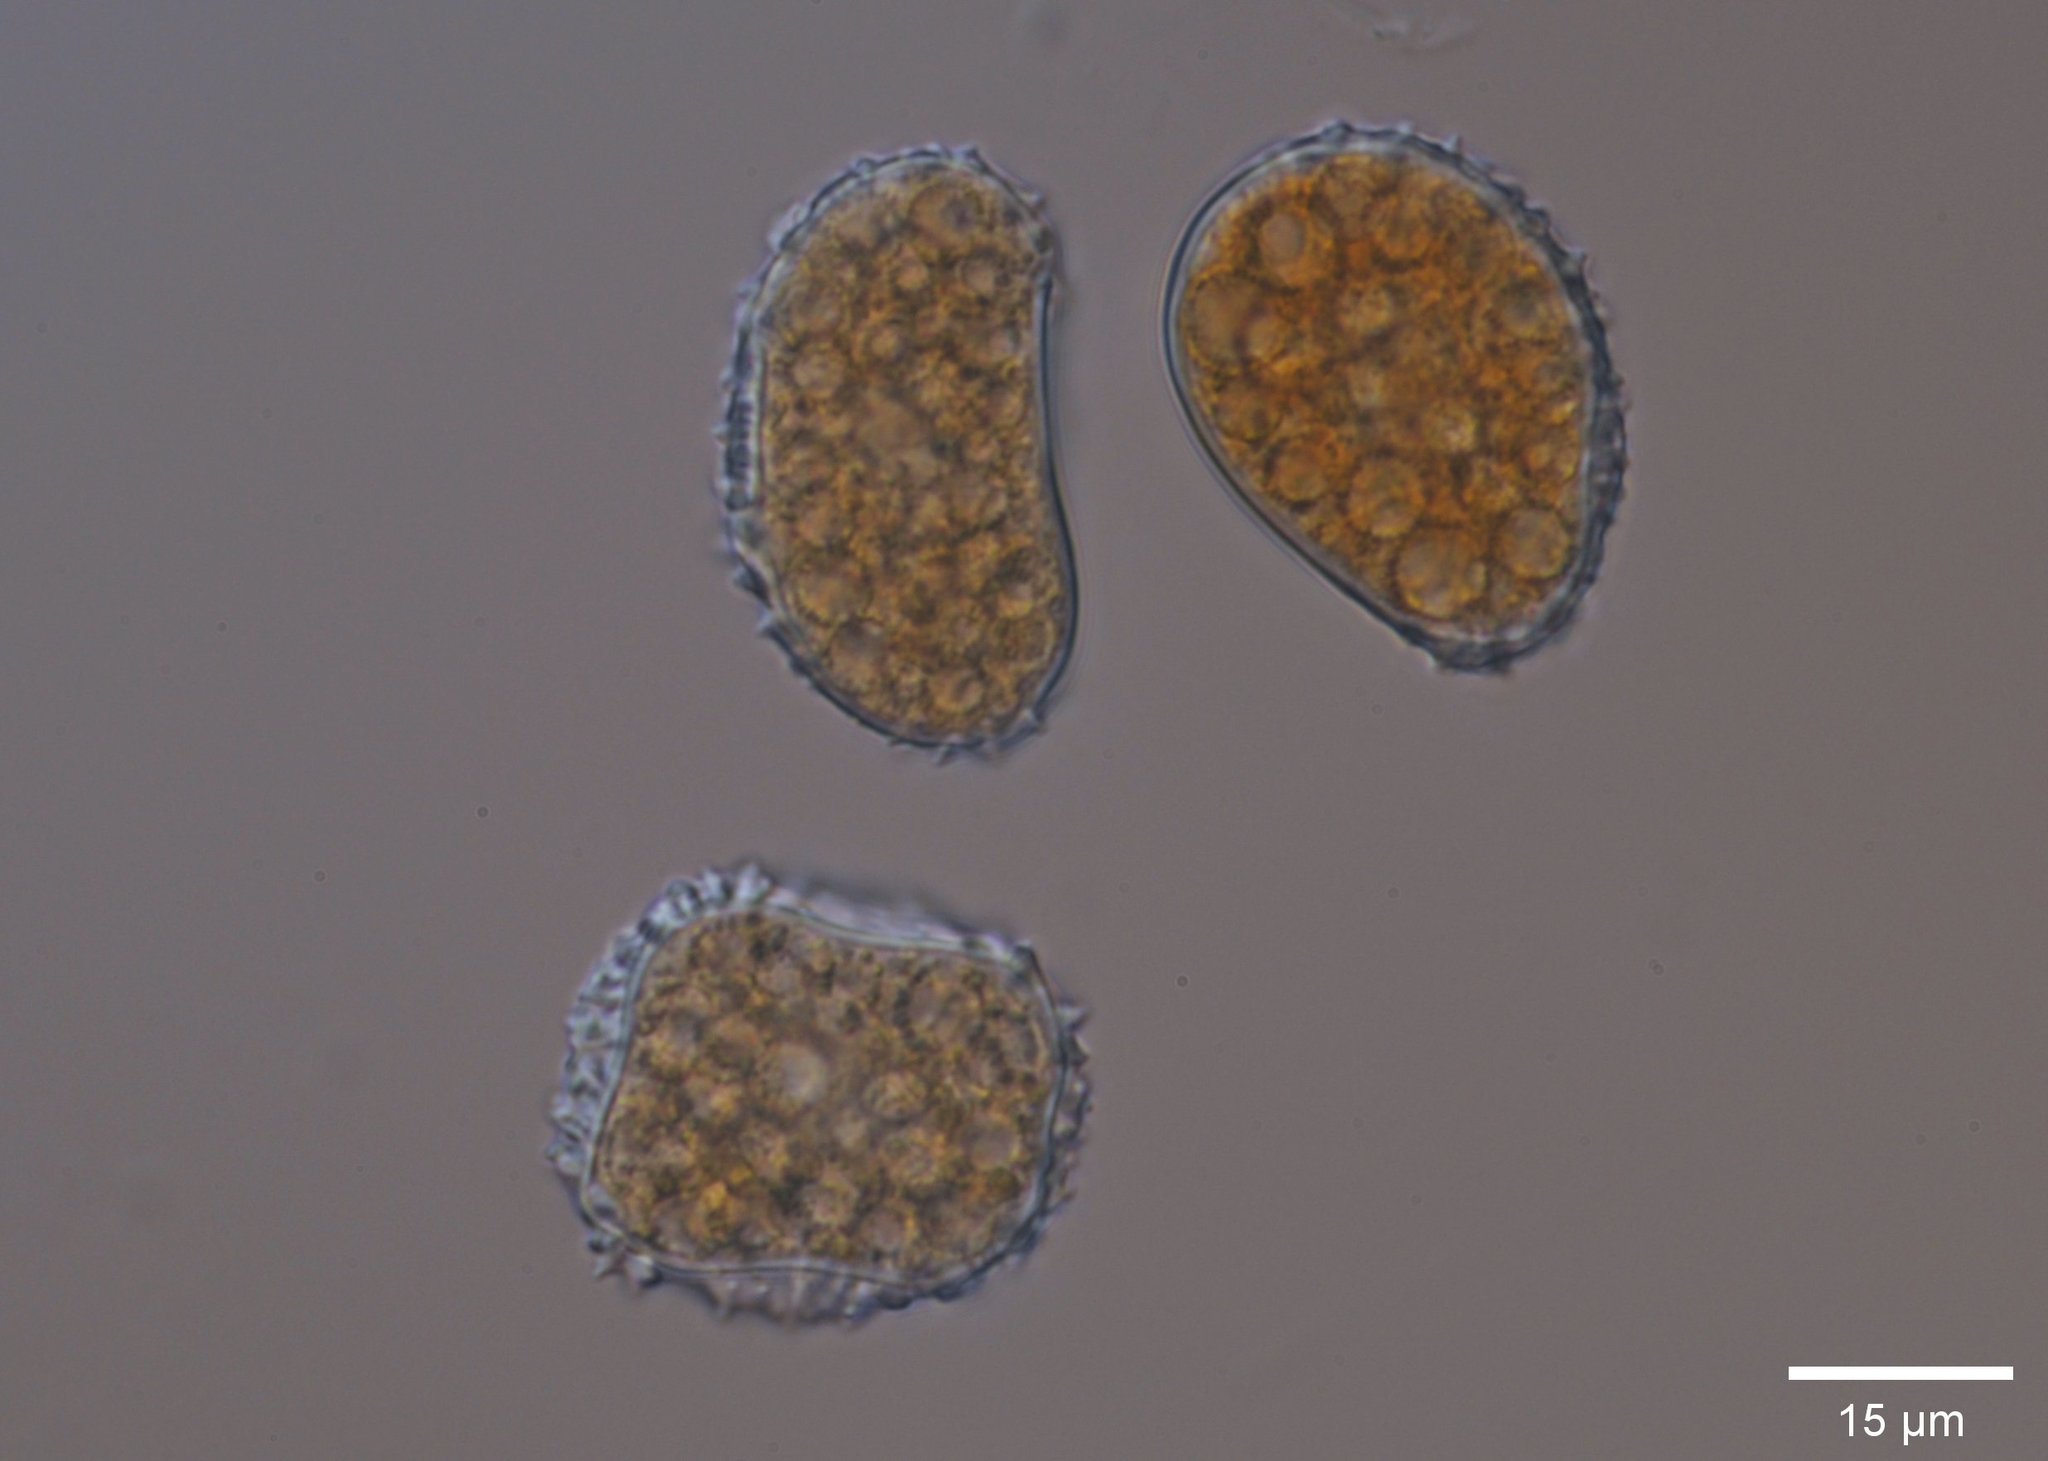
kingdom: Fungi
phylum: Basidiomycota
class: Pucciniomycetes
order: Pucciniales
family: Zaghouaniaceae
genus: Hemileia
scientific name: Hemileia vastatrix
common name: Leaf rust of coffee
